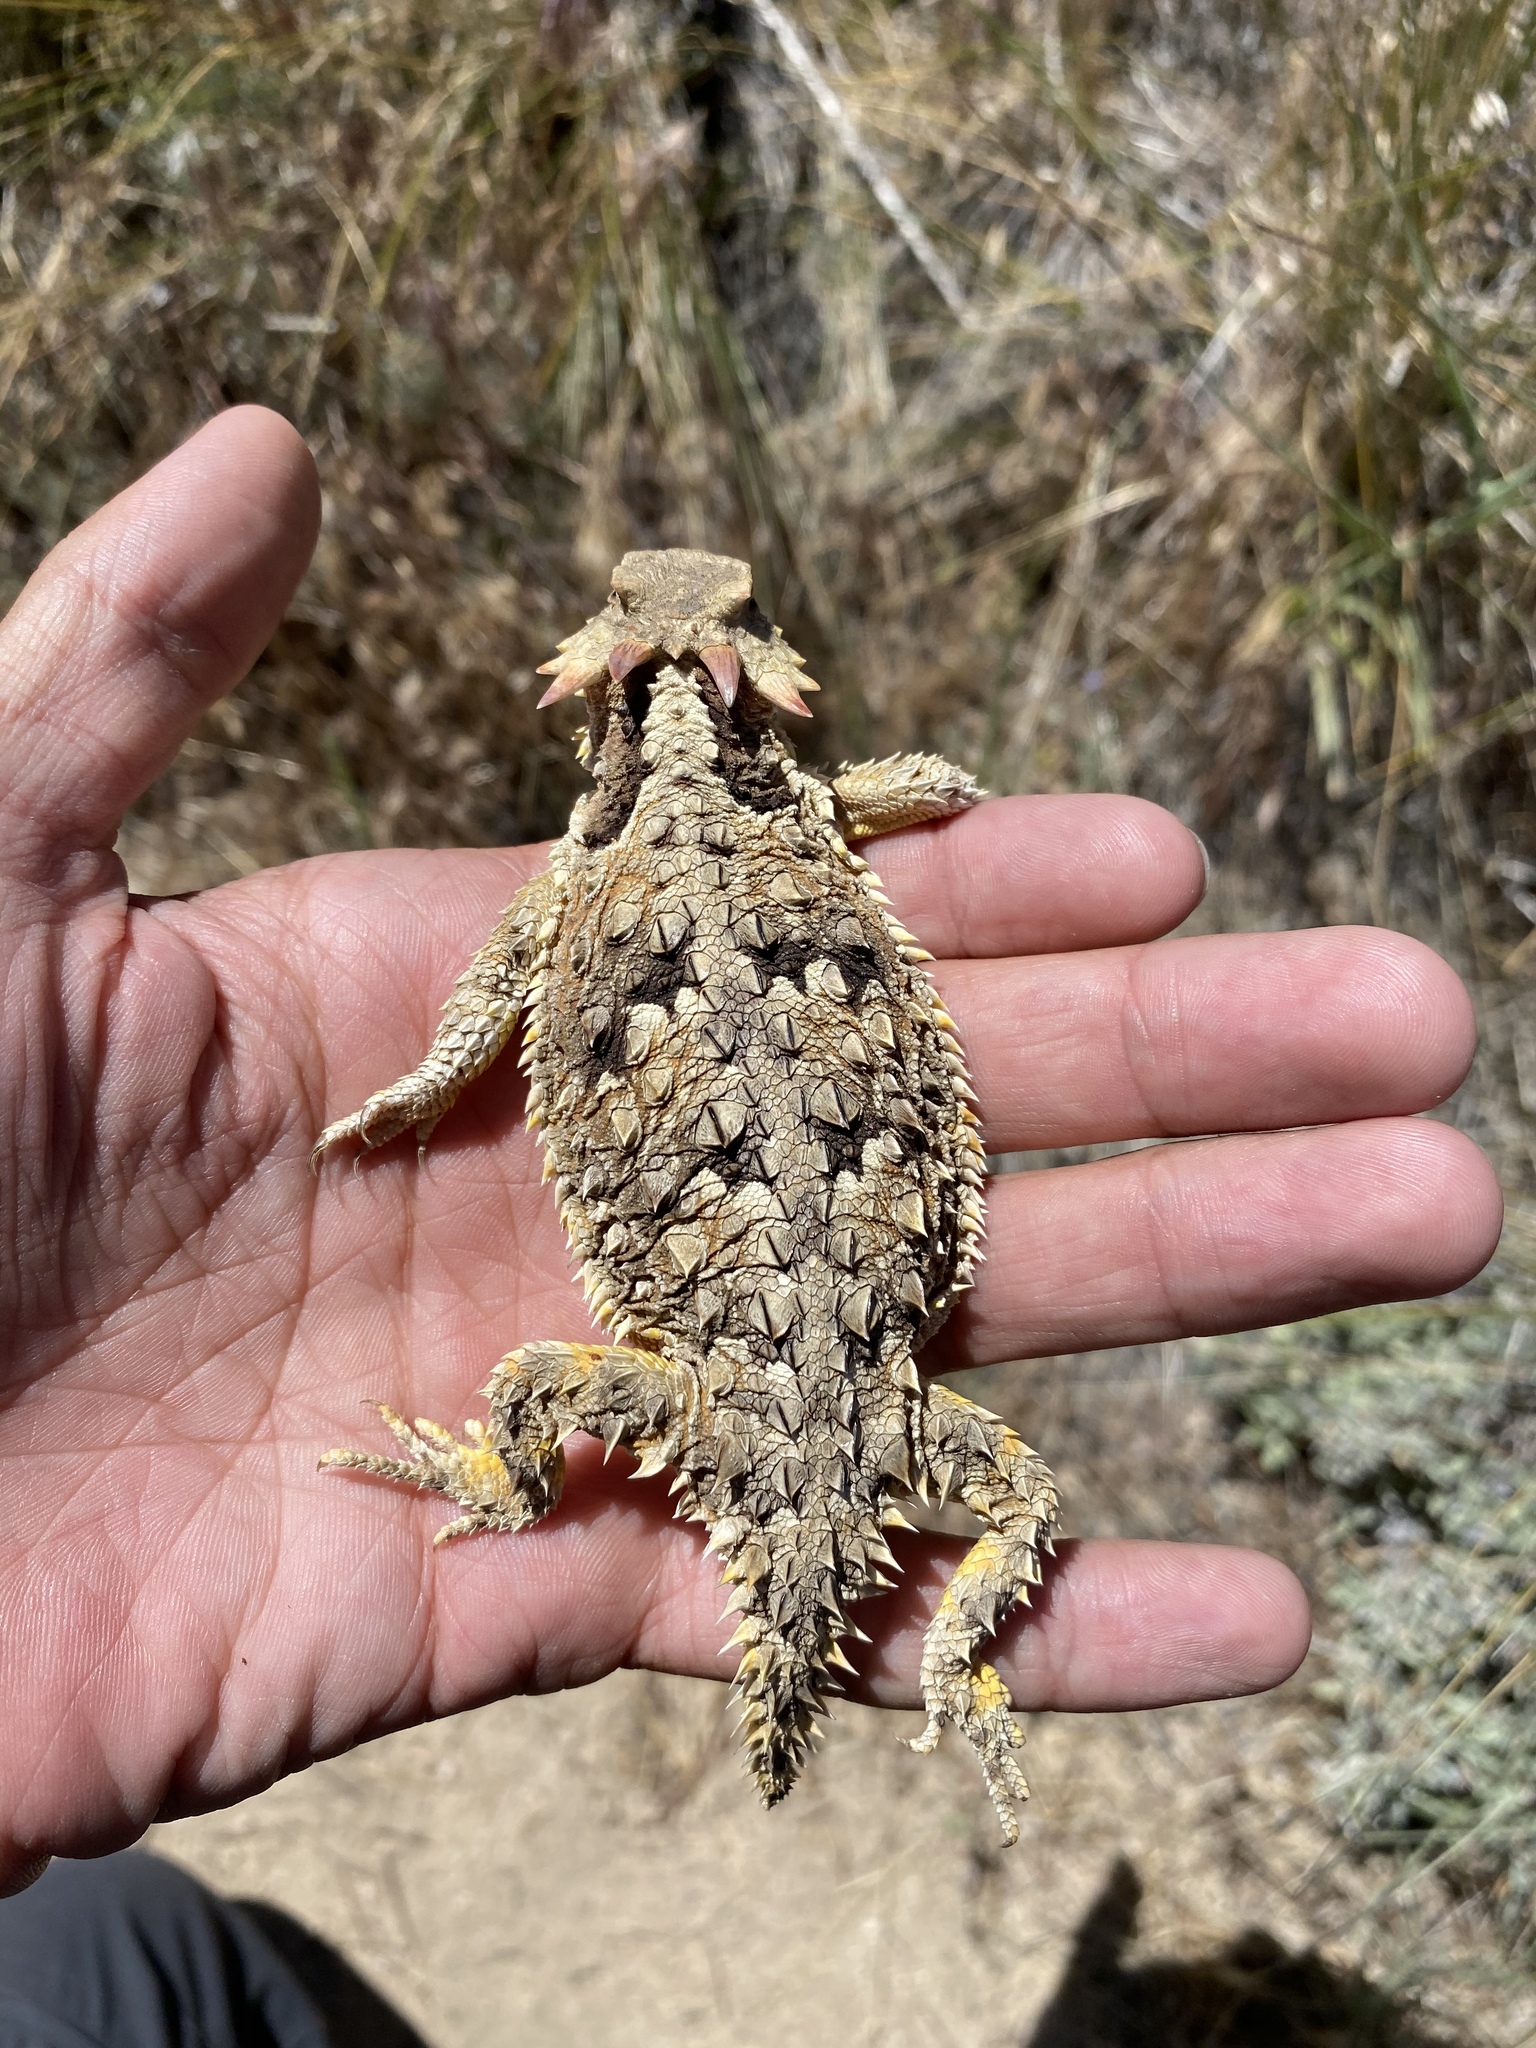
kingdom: Animalia
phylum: Chordata
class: Squamata
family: Phrynosomatidae
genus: Phrynosoma
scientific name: Phrynosoma blainvillii
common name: San diego horned lizard
